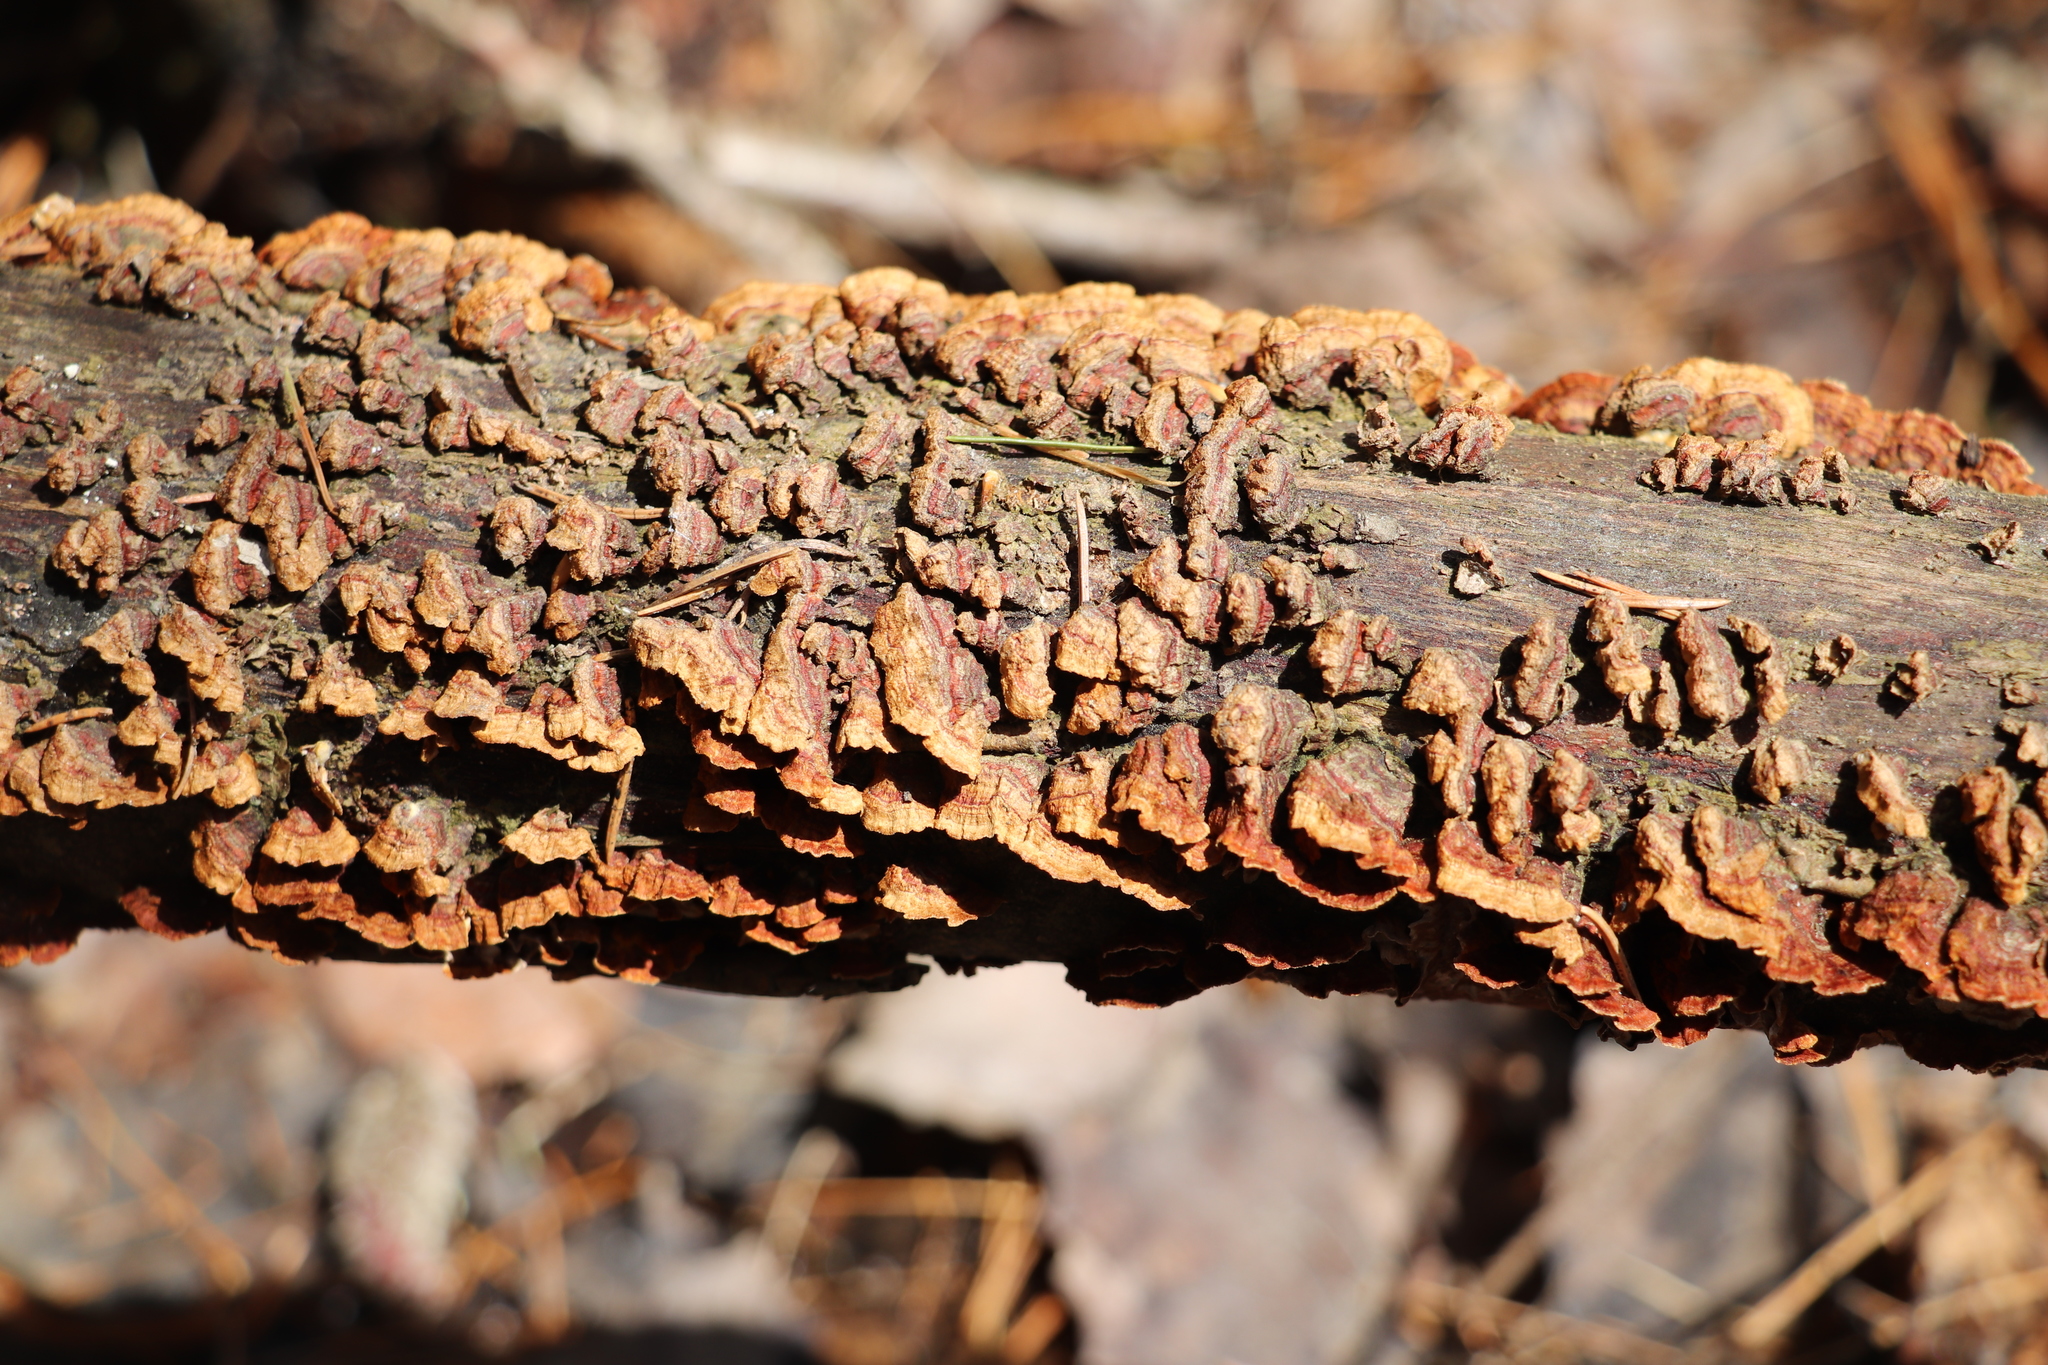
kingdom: Fungi
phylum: Basidiomycota
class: Agaricomycetes
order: Hymenochaetales
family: Hymenochaetaceae
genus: Hydnoporia
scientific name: Hydnoporia tabacina
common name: Willow glue
